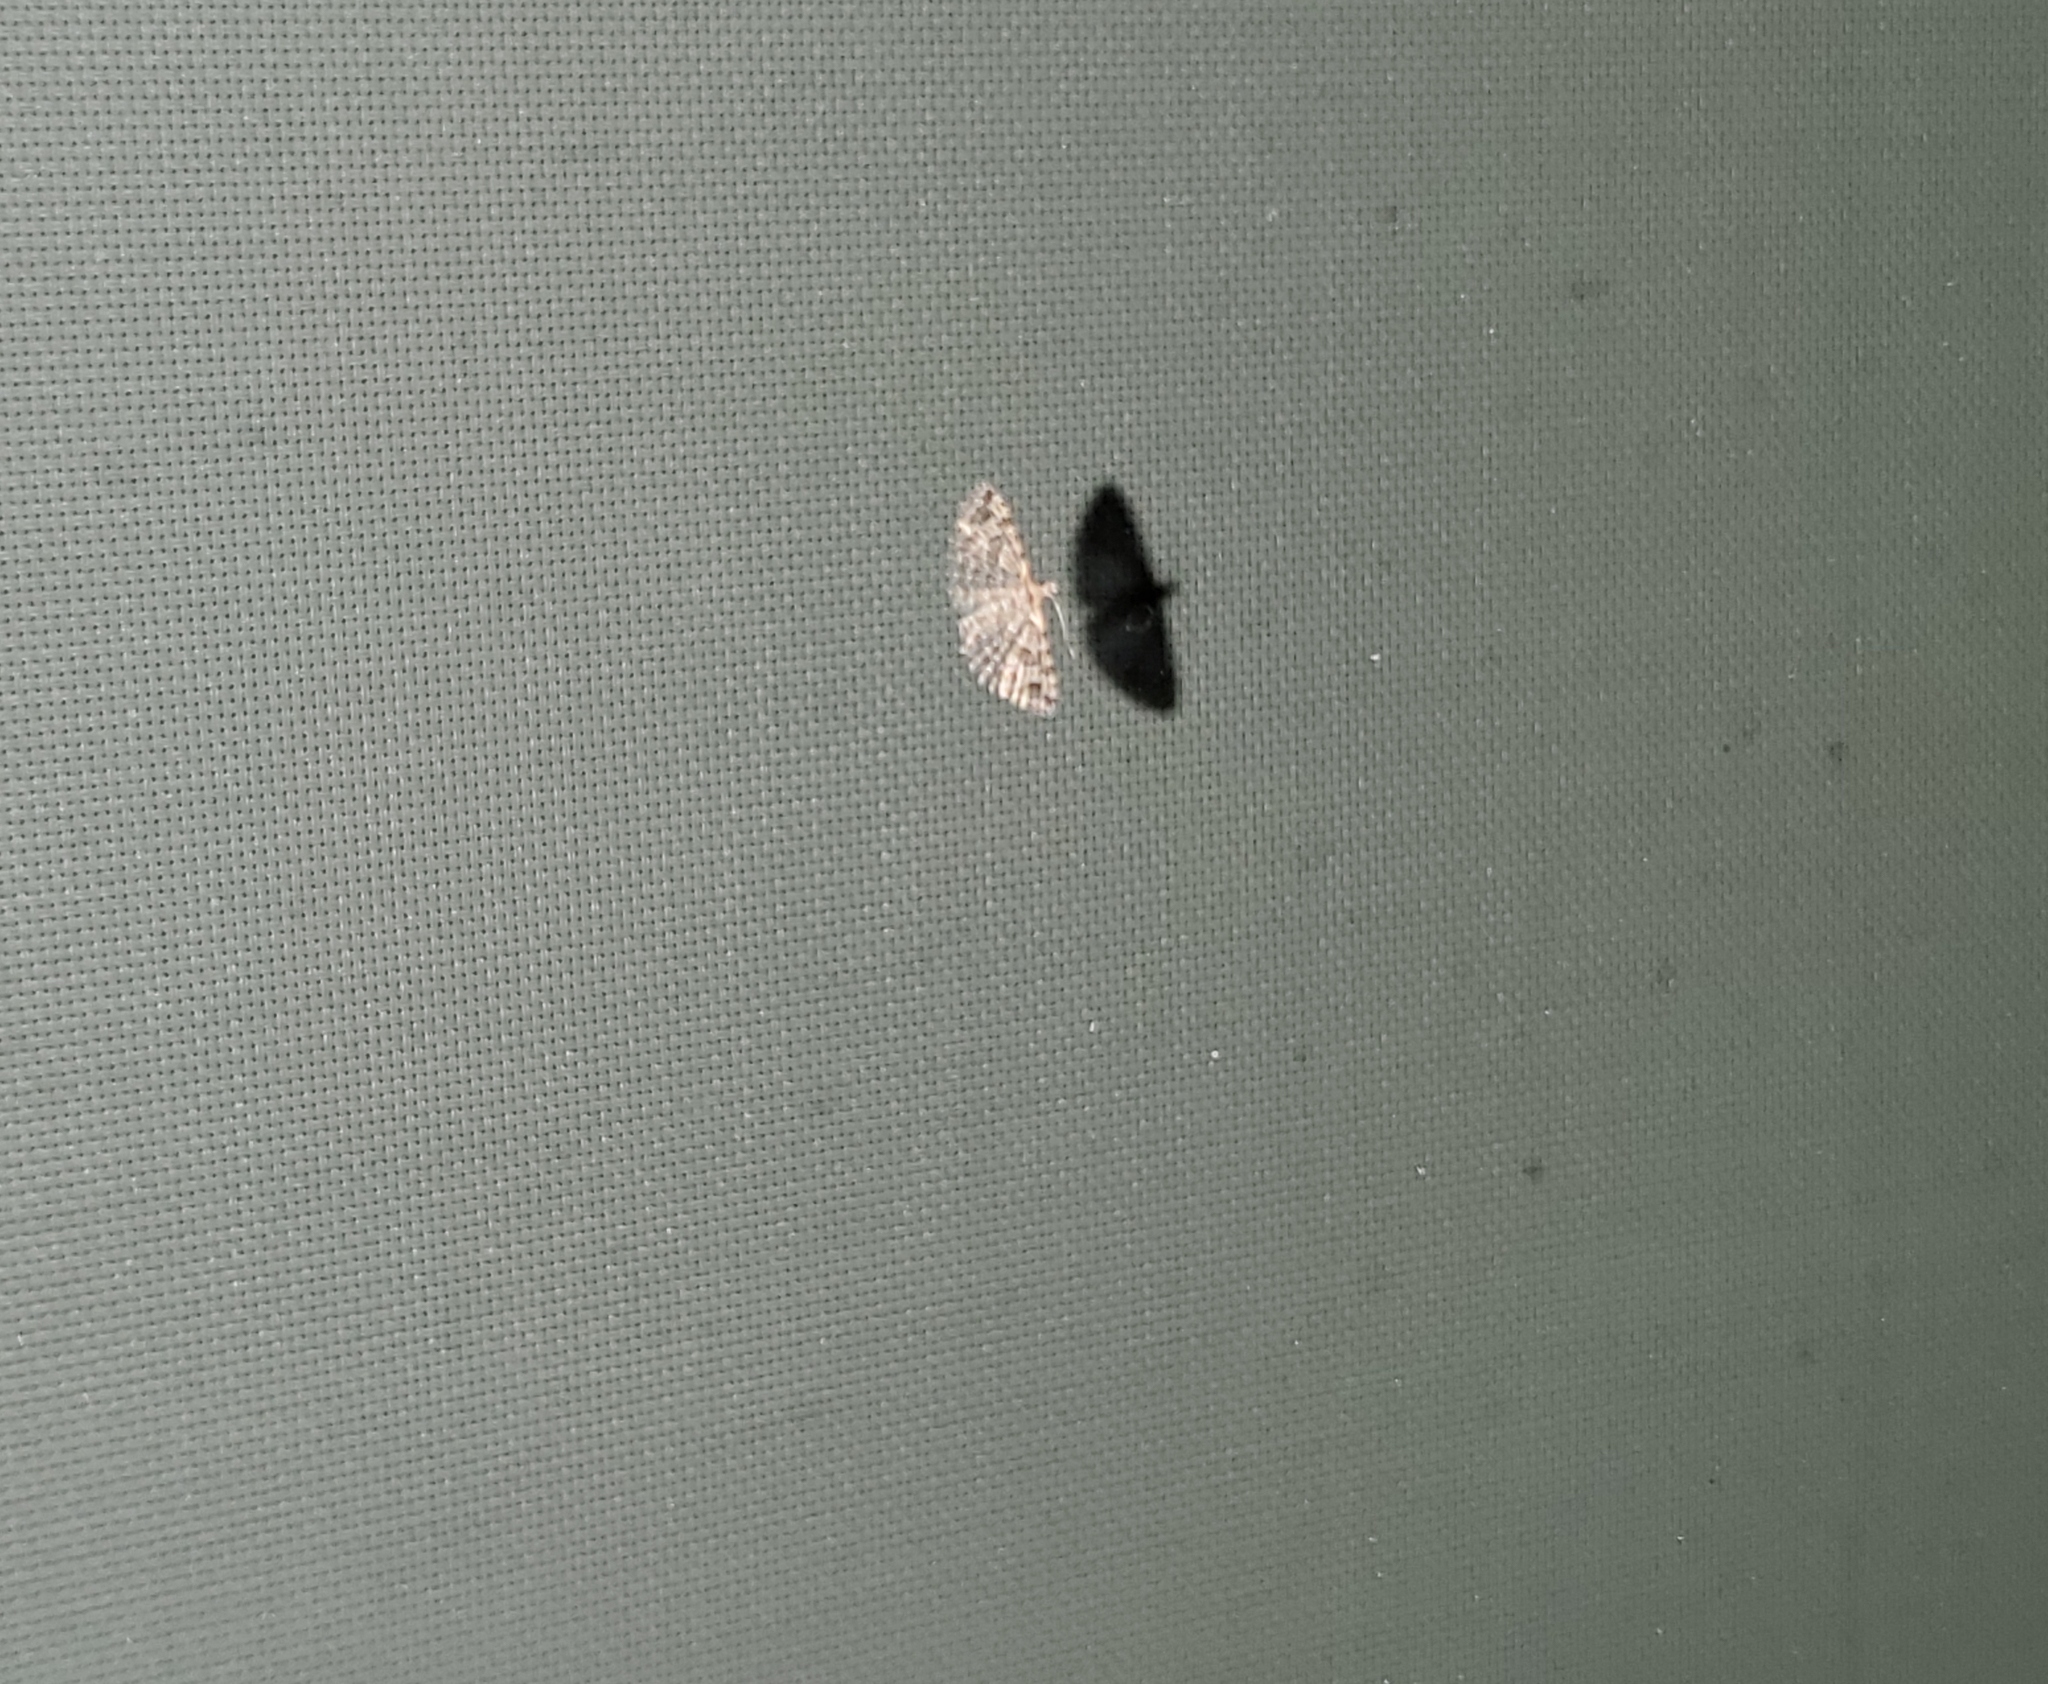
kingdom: Animalia
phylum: Arthropoda
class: Insecta
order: Lepidoptera
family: Alucitidae
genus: Alucita
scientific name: Alucita montana
